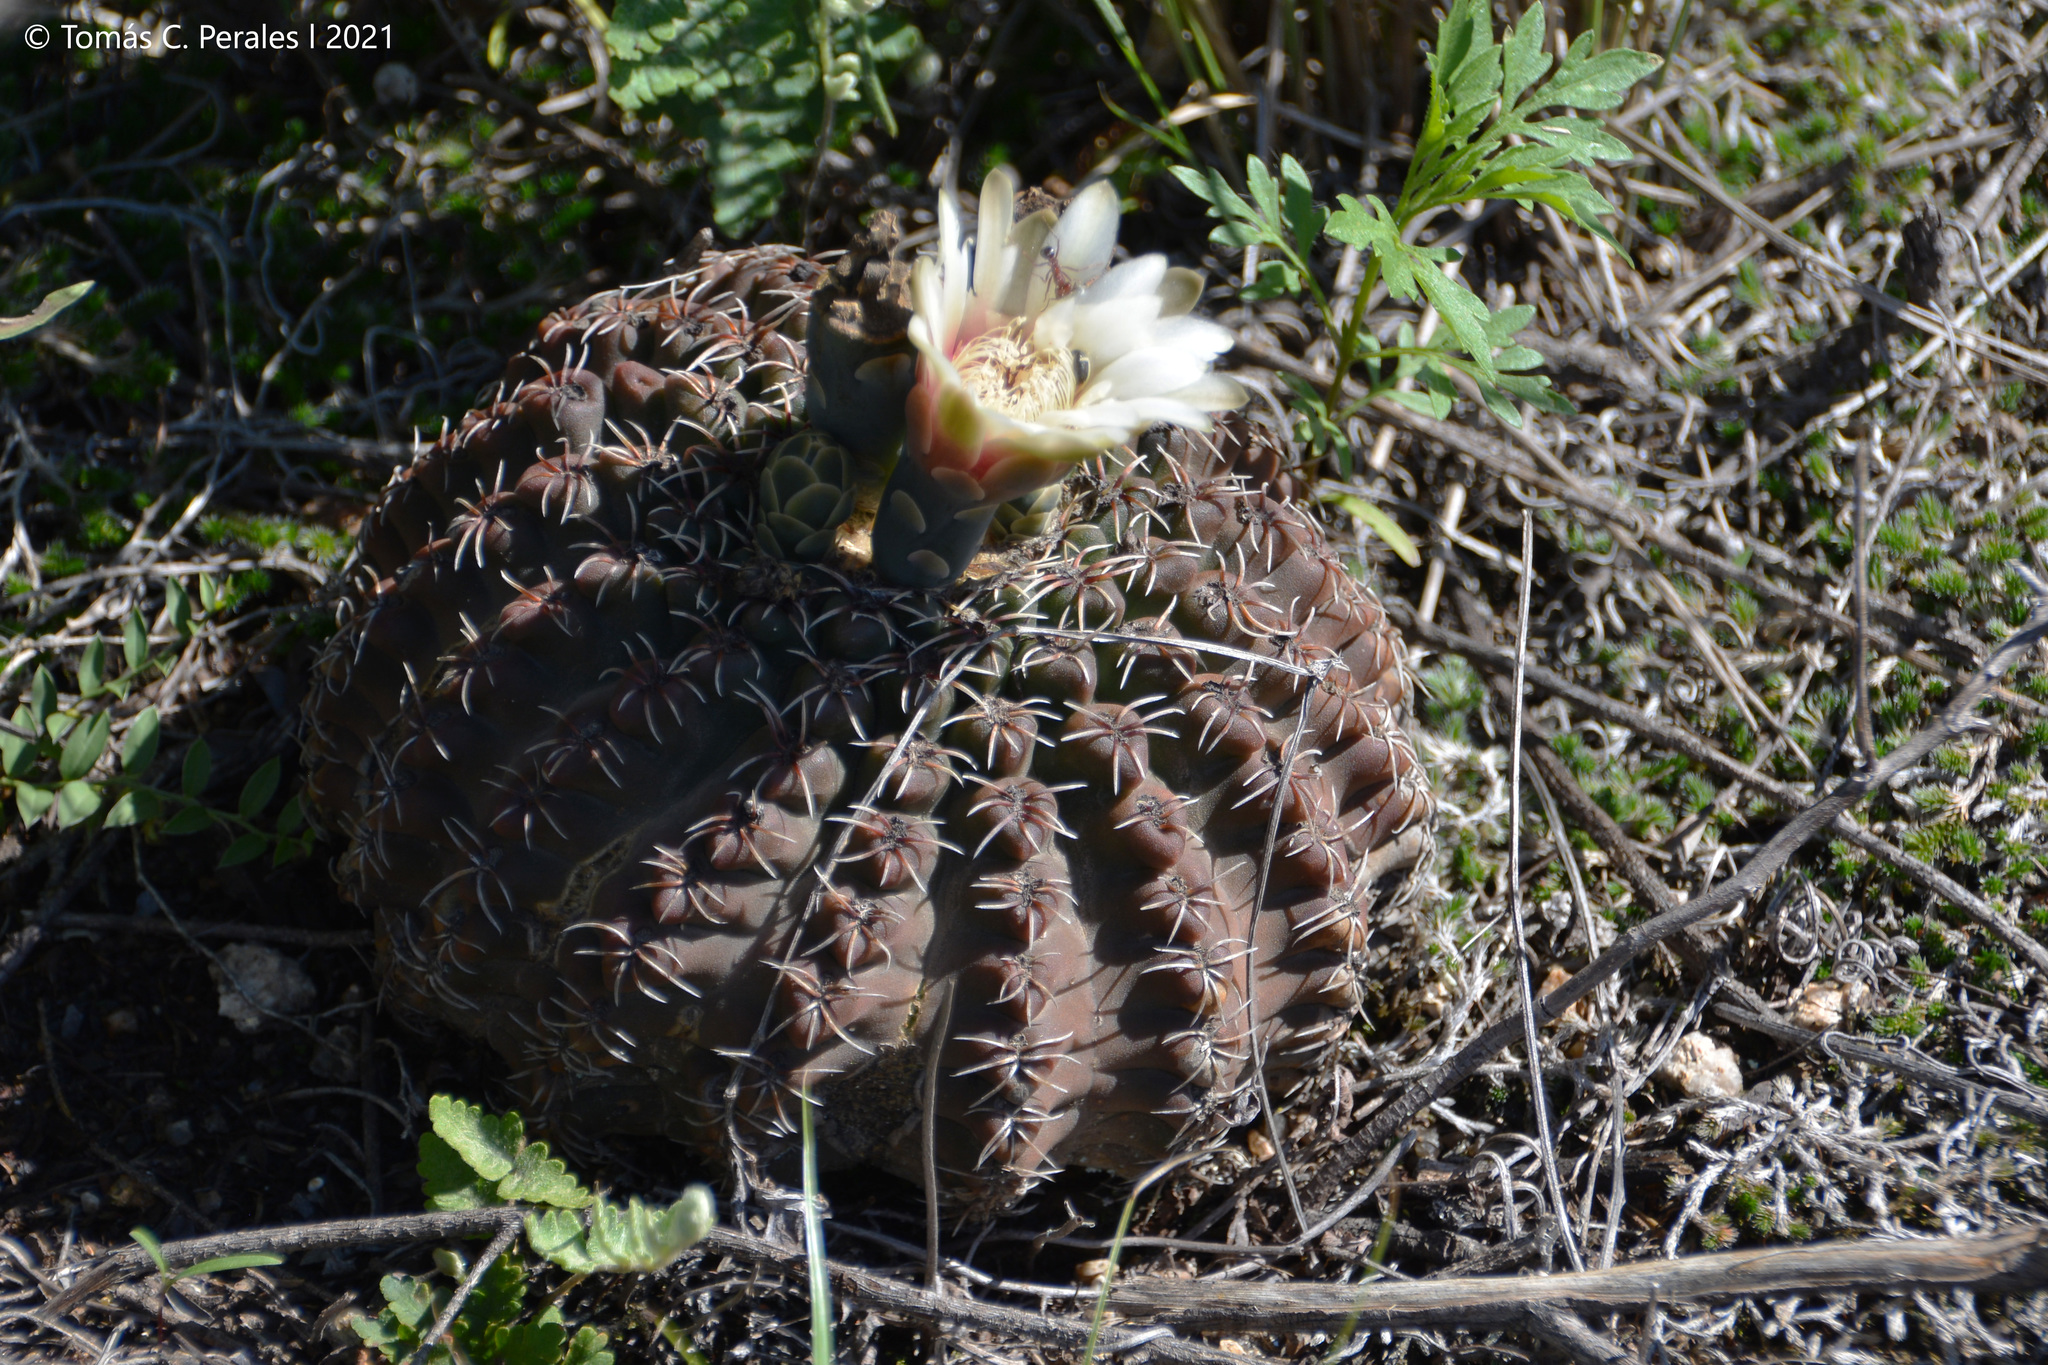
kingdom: Plantae
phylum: Tracheophyta
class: Magnoliopsida
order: Caryophyllales
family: Cactaceae
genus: Gymnocalycium
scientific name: Gymnocalycium quehlianum
